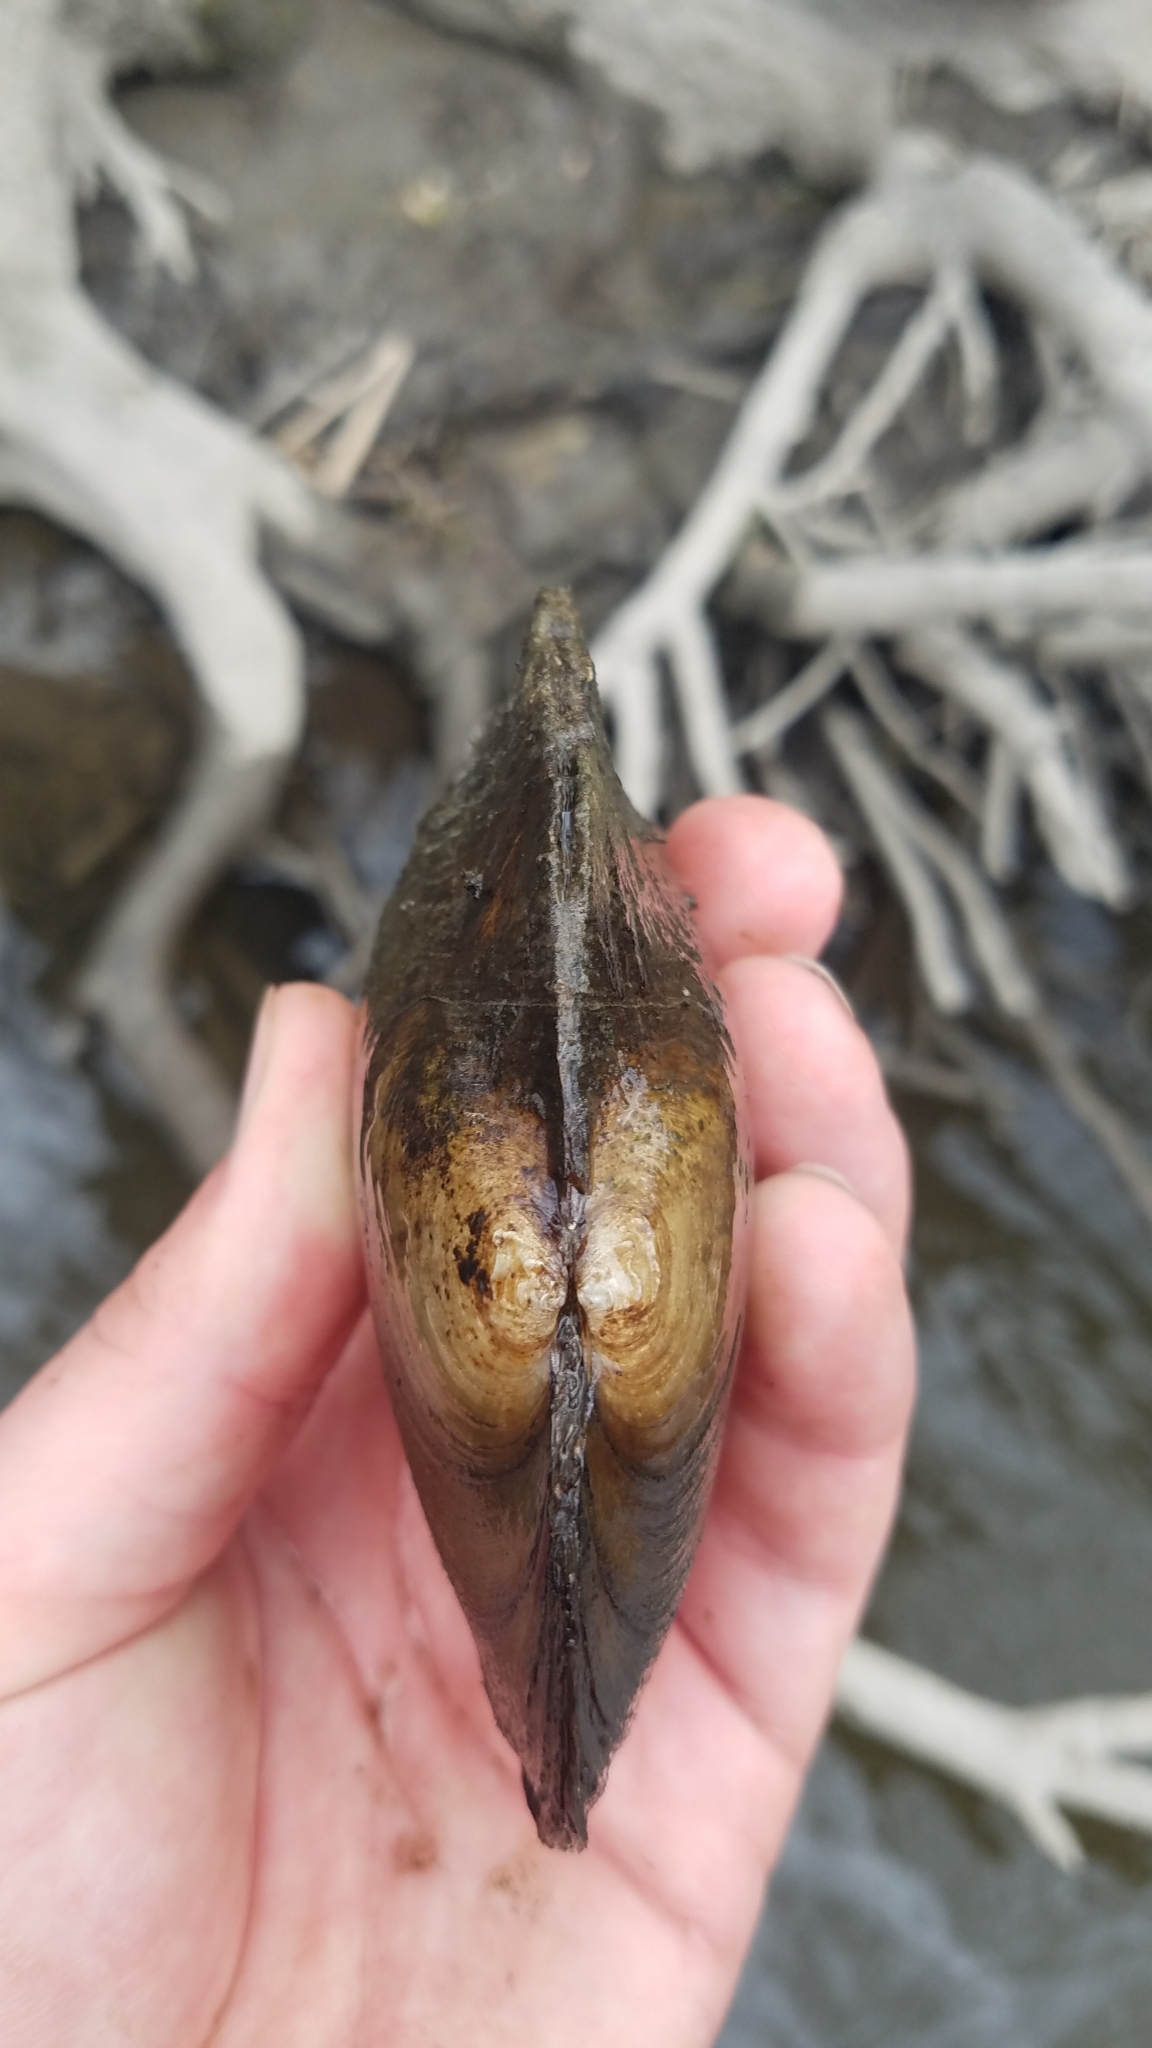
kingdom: Animalia
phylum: Mollusca
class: Bivalvia
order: Unionida
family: Unionidae
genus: Lasmigona
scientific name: Lasmigona complanata
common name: White heelsplitter
